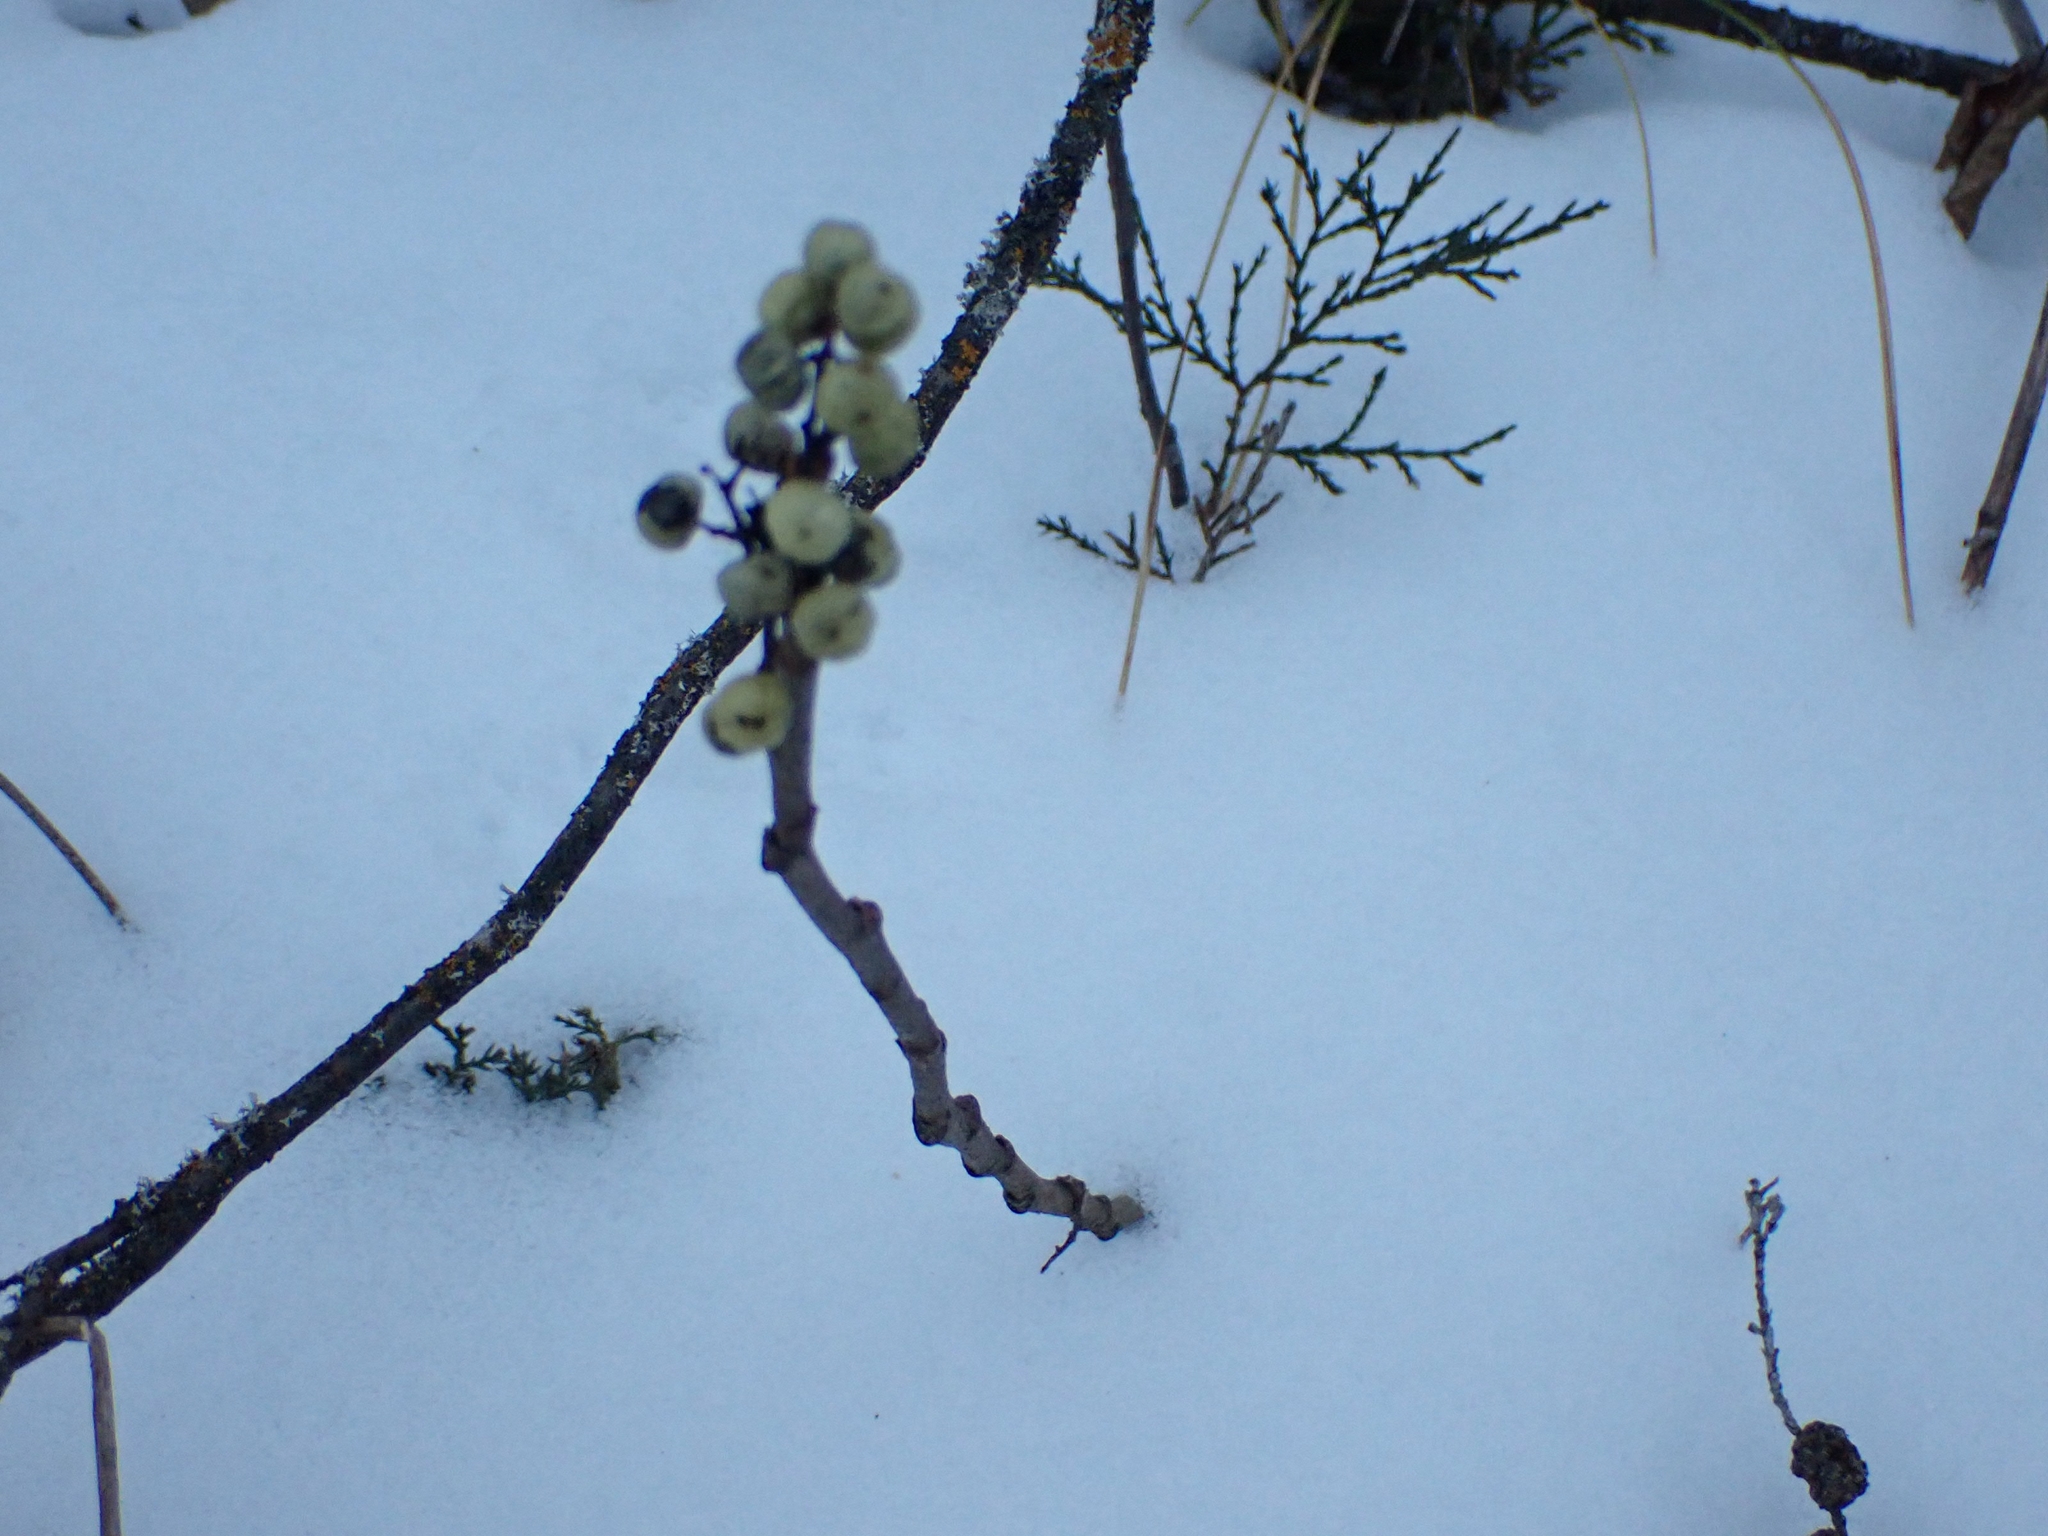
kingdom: Plantae
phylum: Tracheophyta
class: Magnoliopsida
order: Sapindales
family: Anacardiaceae
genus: Toxicodendron
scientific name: Toxicodendron rydbergii
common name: Rydberg's poison-ivy
